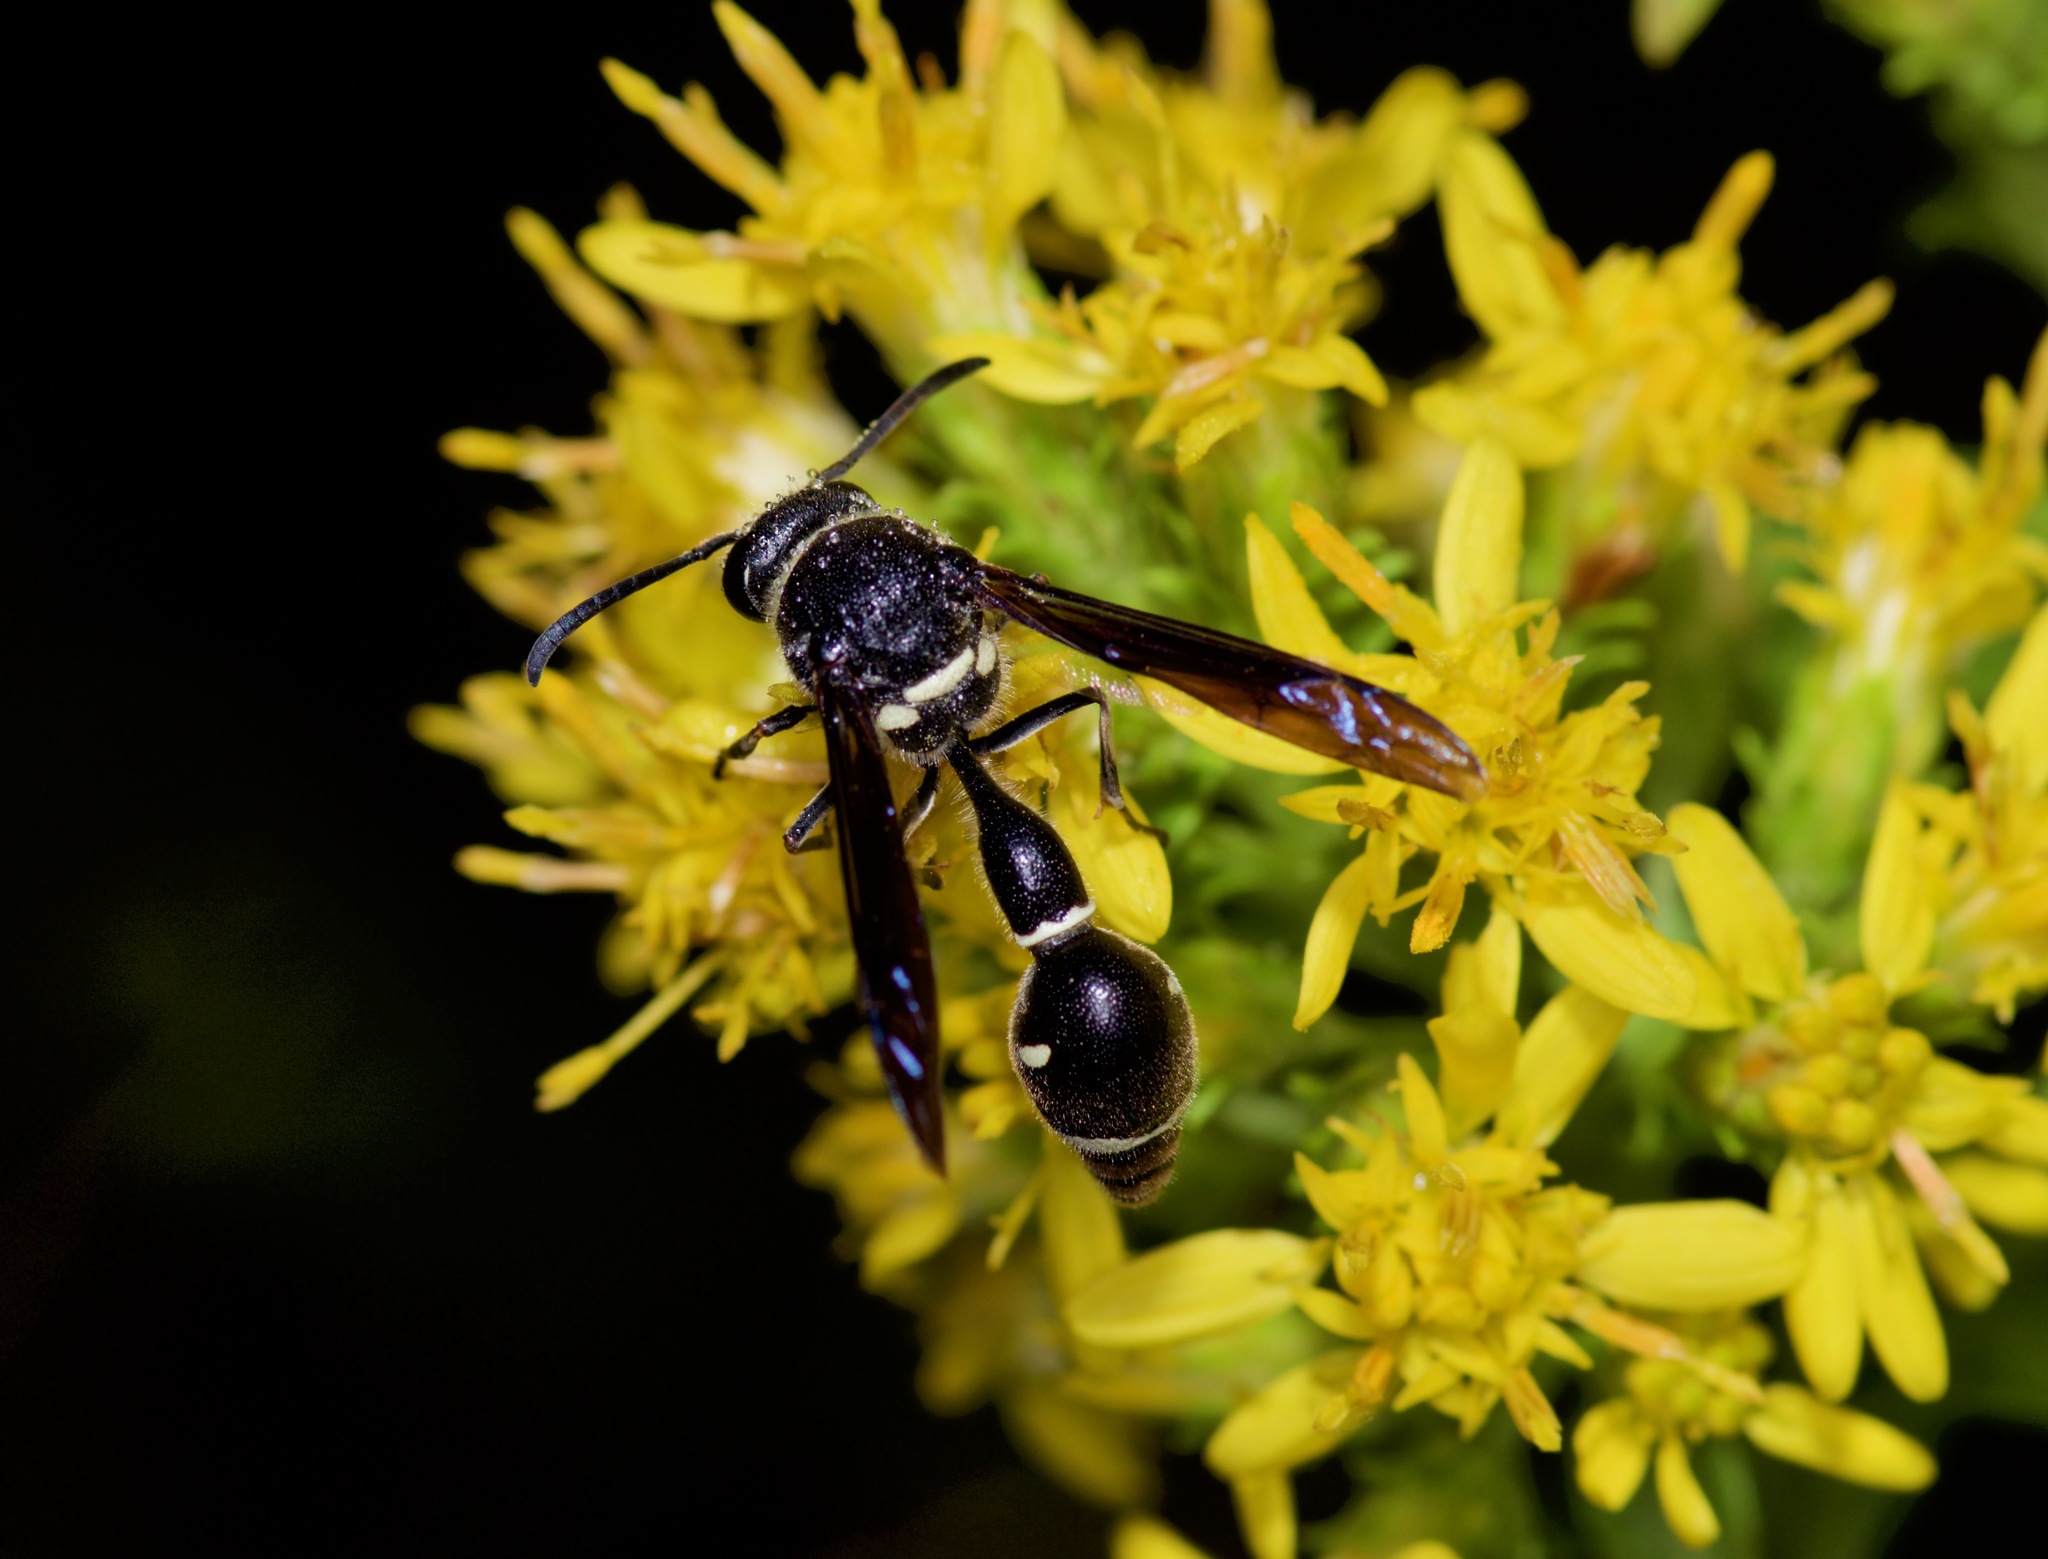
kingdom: Animalia
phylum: Arthropoda
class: Insecta
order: Hymenoptera
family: Vespidae
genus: Eumenes
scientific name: Eumenes fraternus
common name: Fraternal potter wasp
